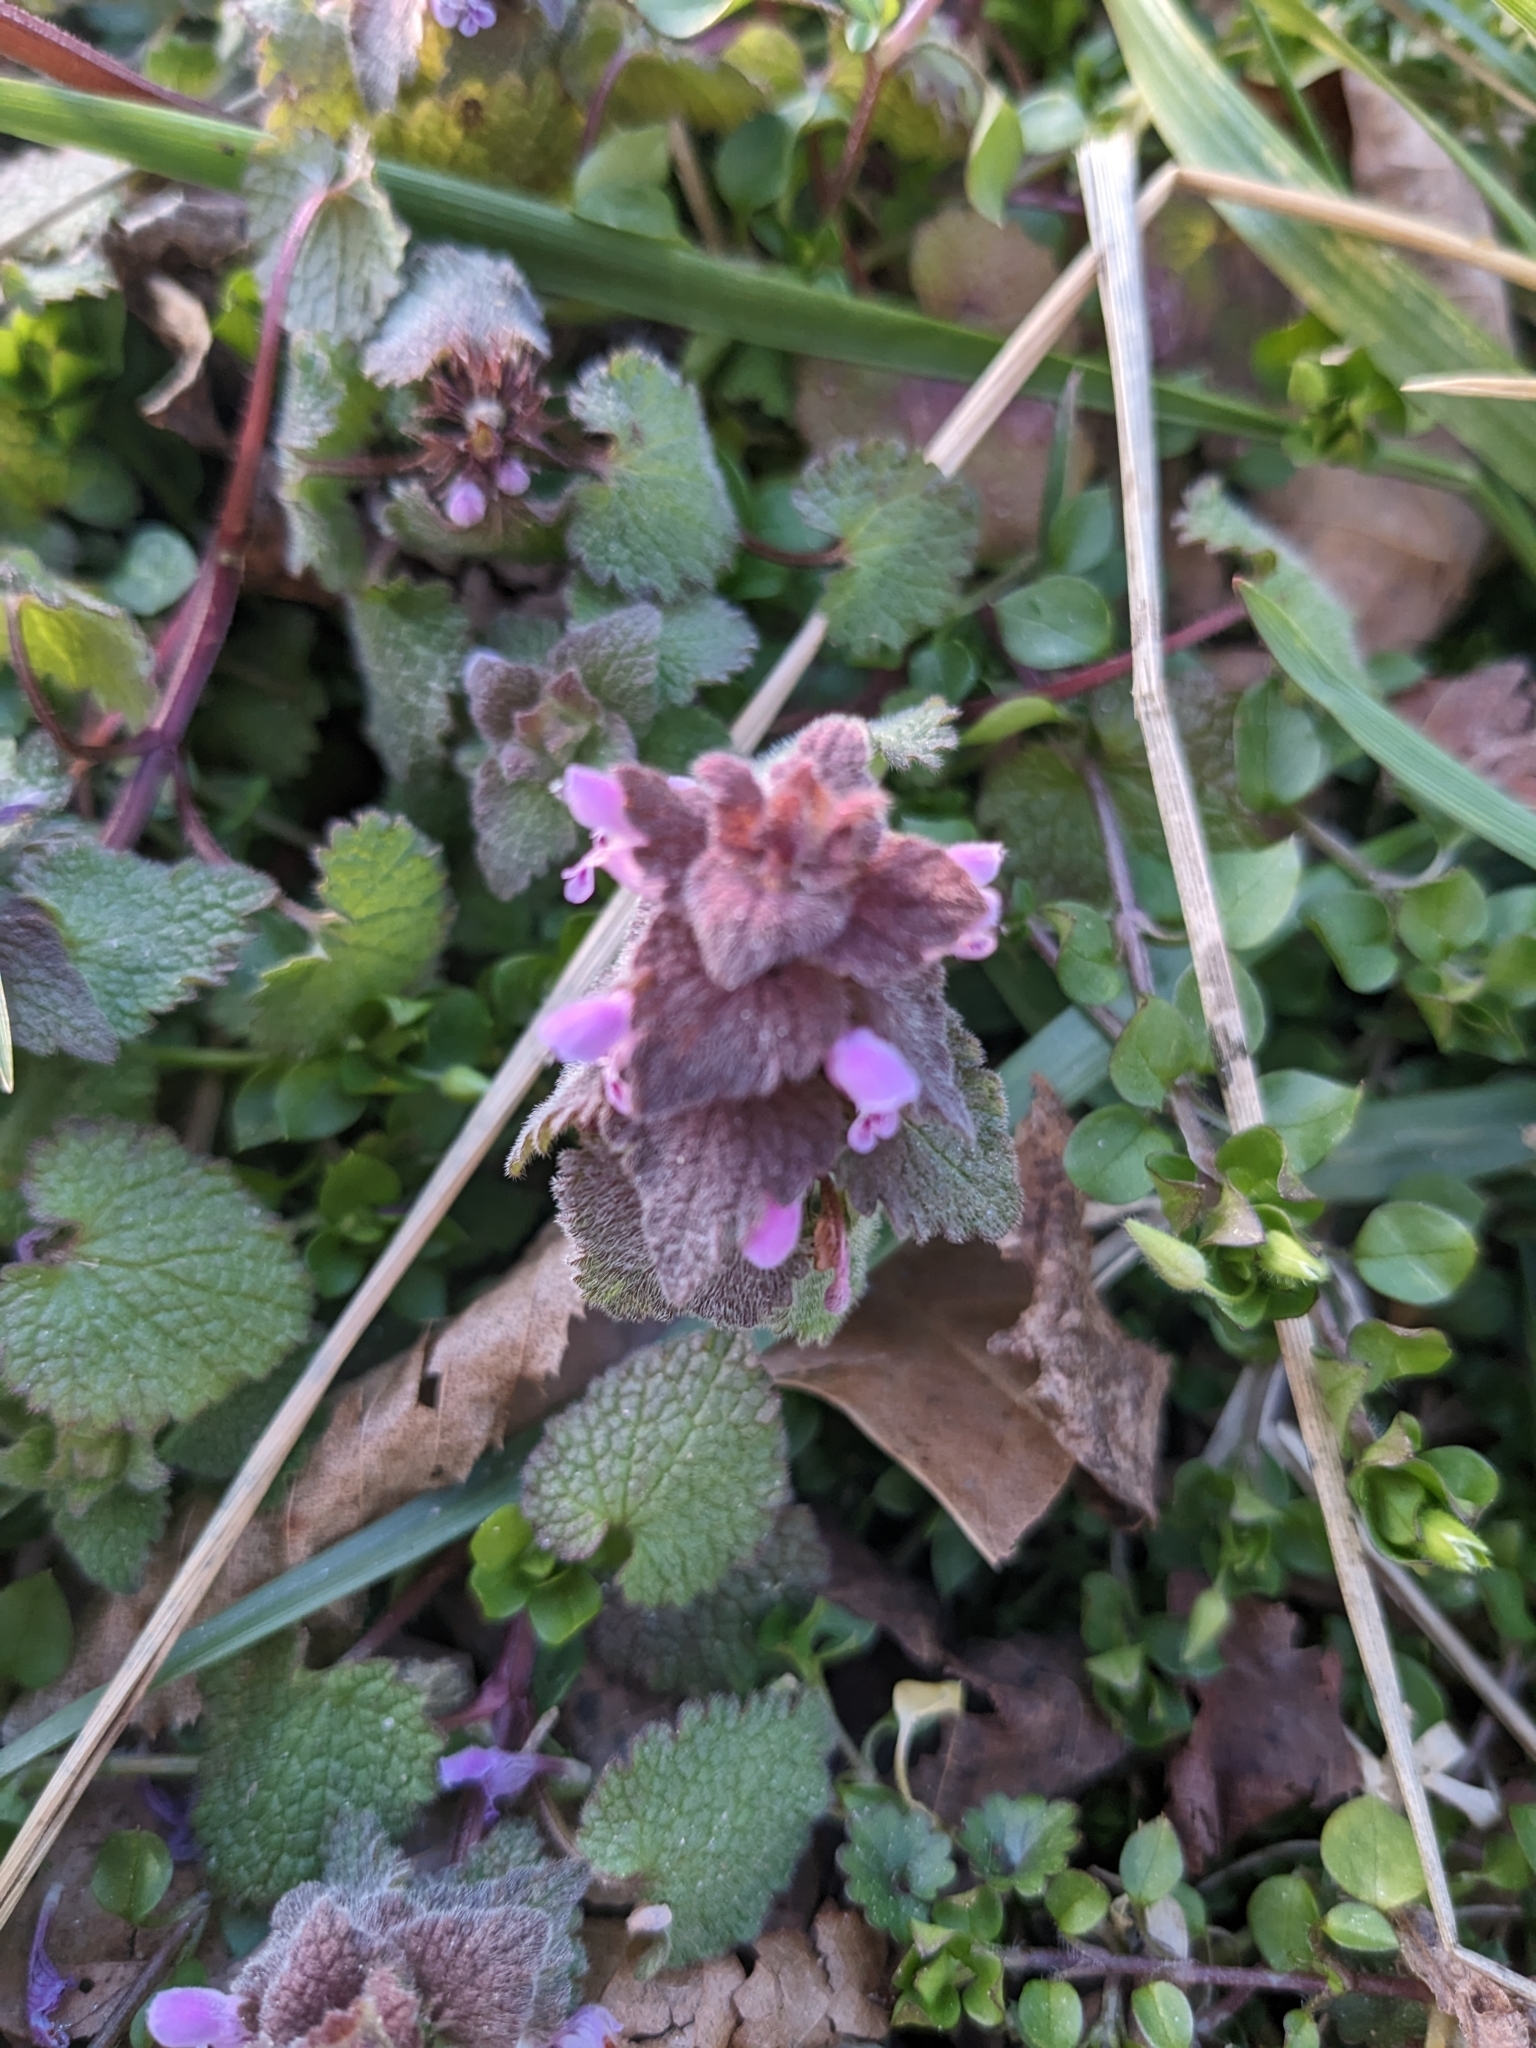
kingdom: Plantae
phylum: Tracheophyta
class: Magnoliopsida
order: Lamiales
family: Lamiaceae
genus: Lamium
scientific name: Lamium purpureum
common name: Red dead-nettle
